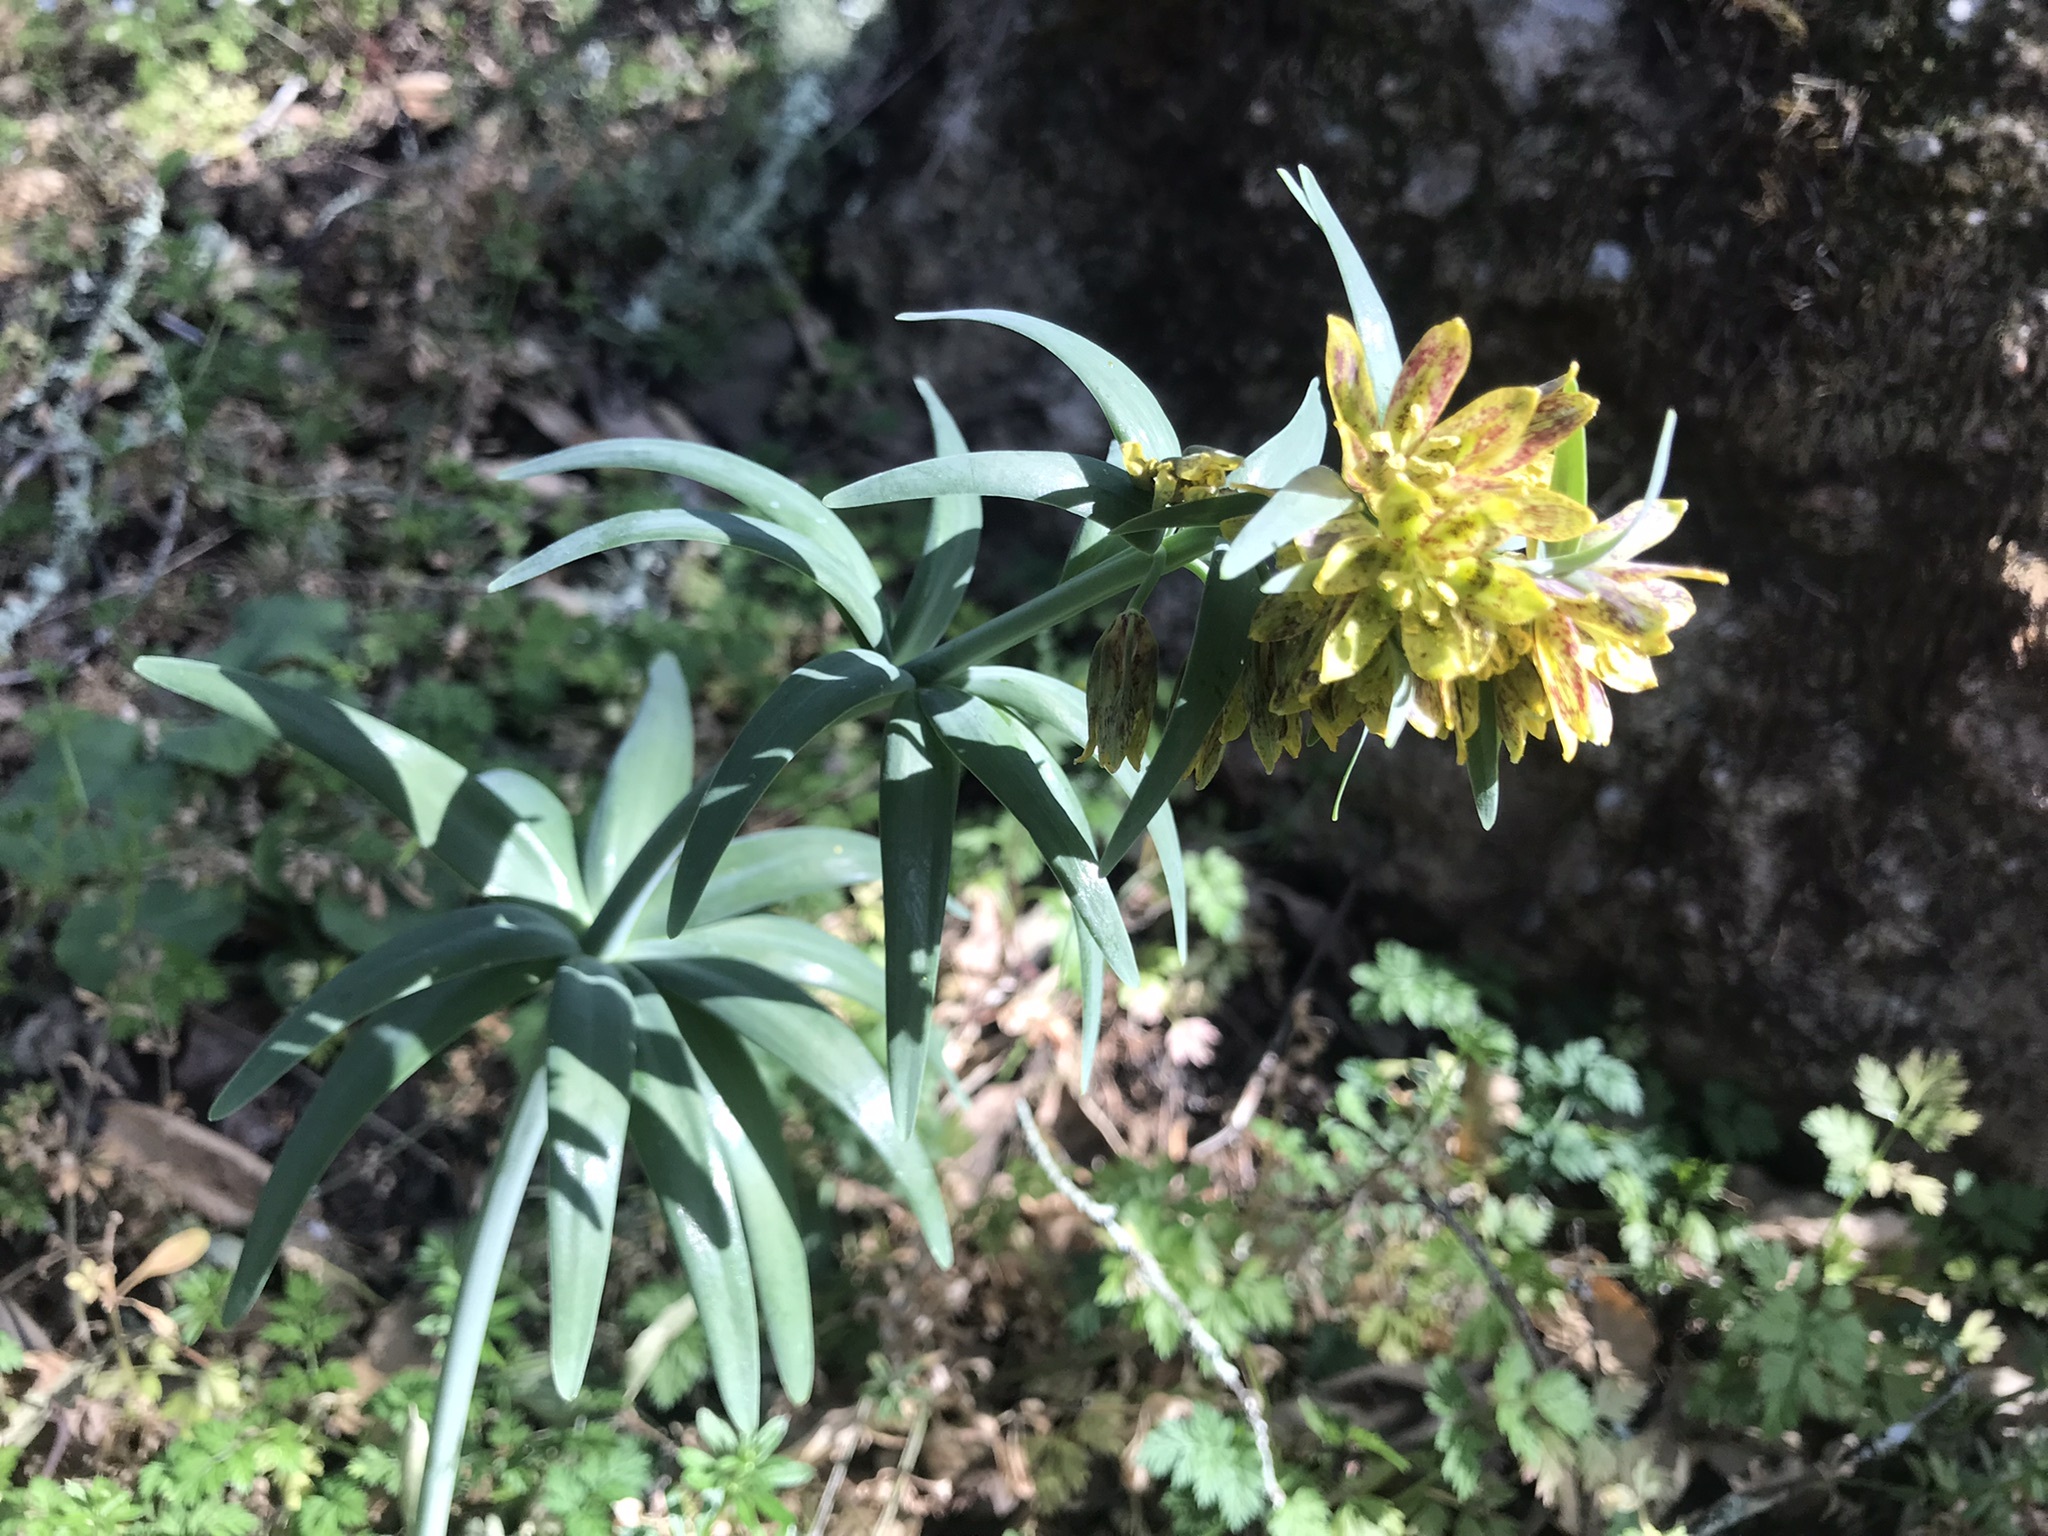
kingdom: Plantae
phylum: Tracheophyta
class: Liliopsida
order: Liliales
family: Liliaceae
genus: Fritillaria
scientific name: Fritillaria affinis
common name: Ojai fritillary
